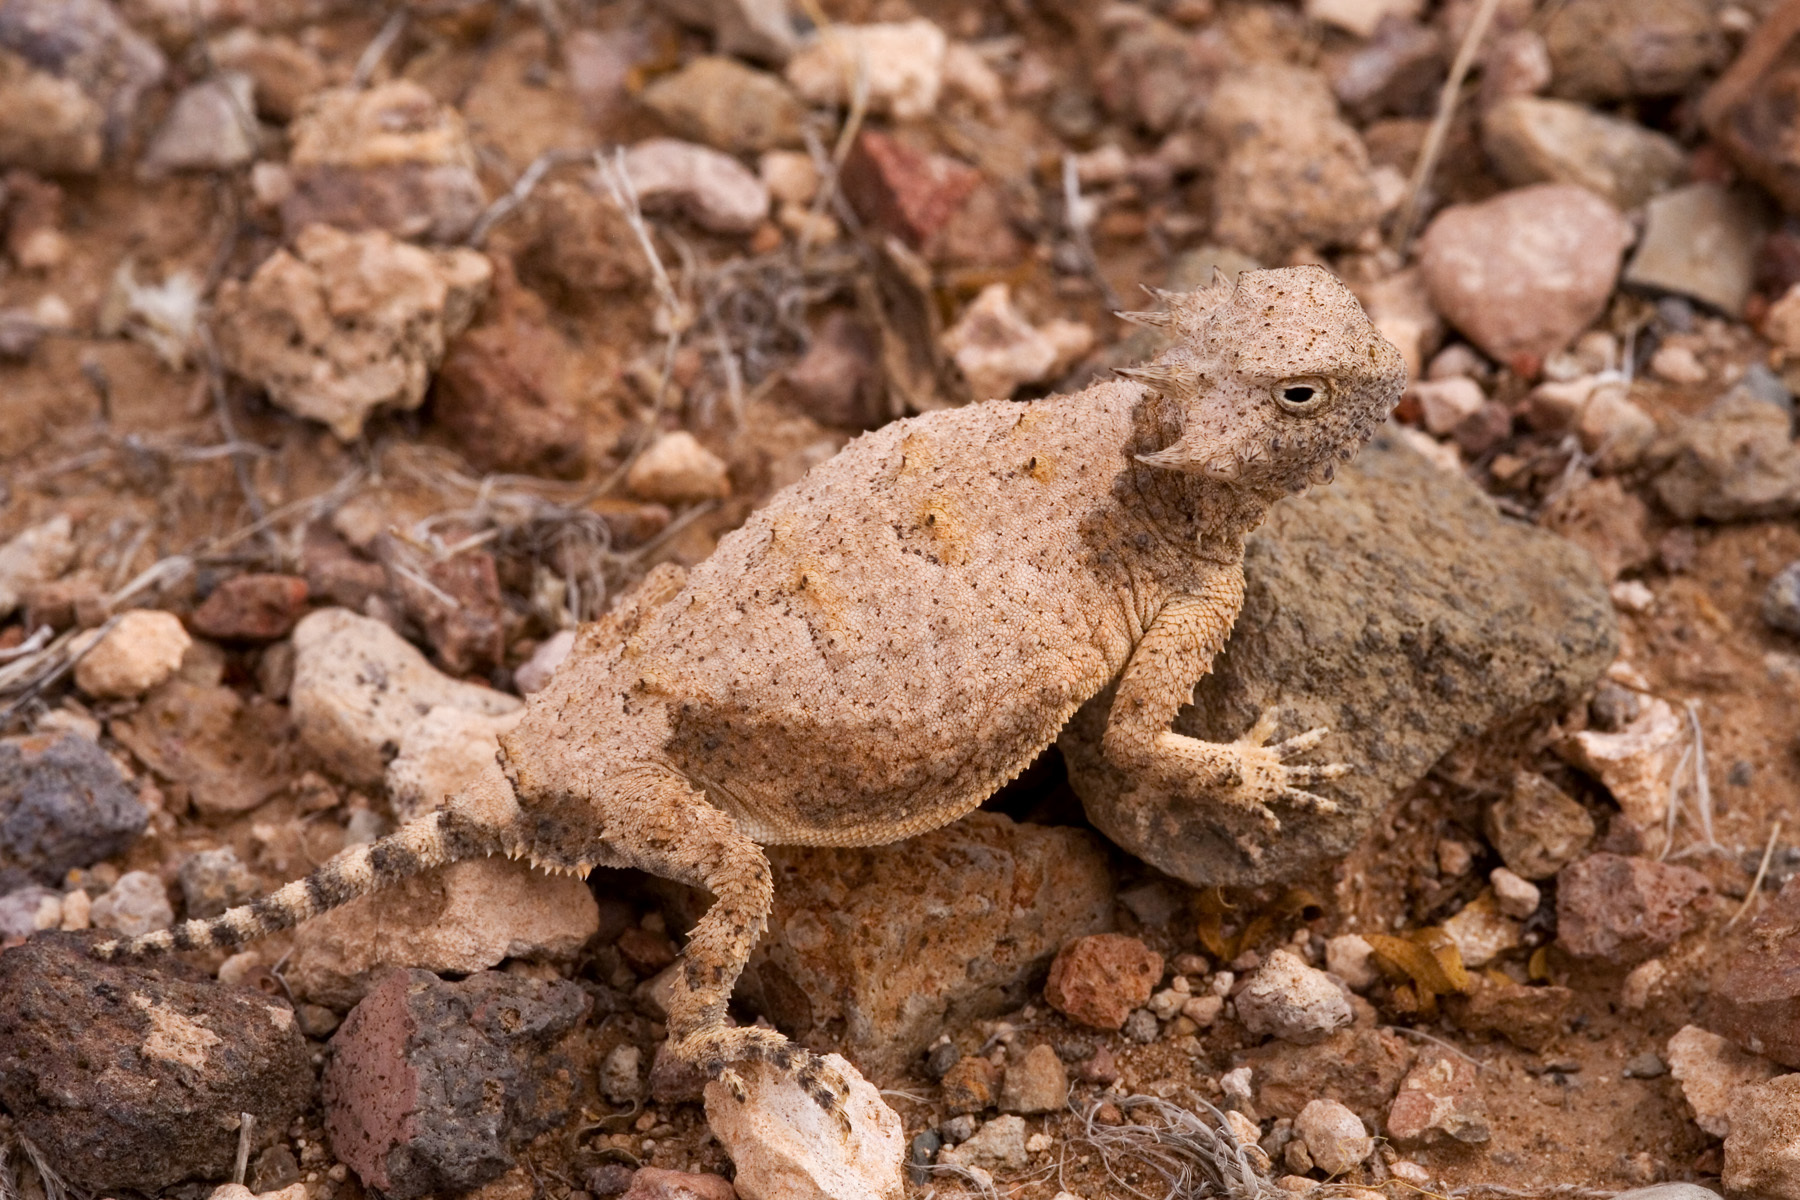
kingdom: Animalia
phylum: Chordata
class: Squamata
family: Phrynosomatidae
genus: Phrynosoma
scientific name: Phrynosoma modestum
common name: Roundtail horned lizard
